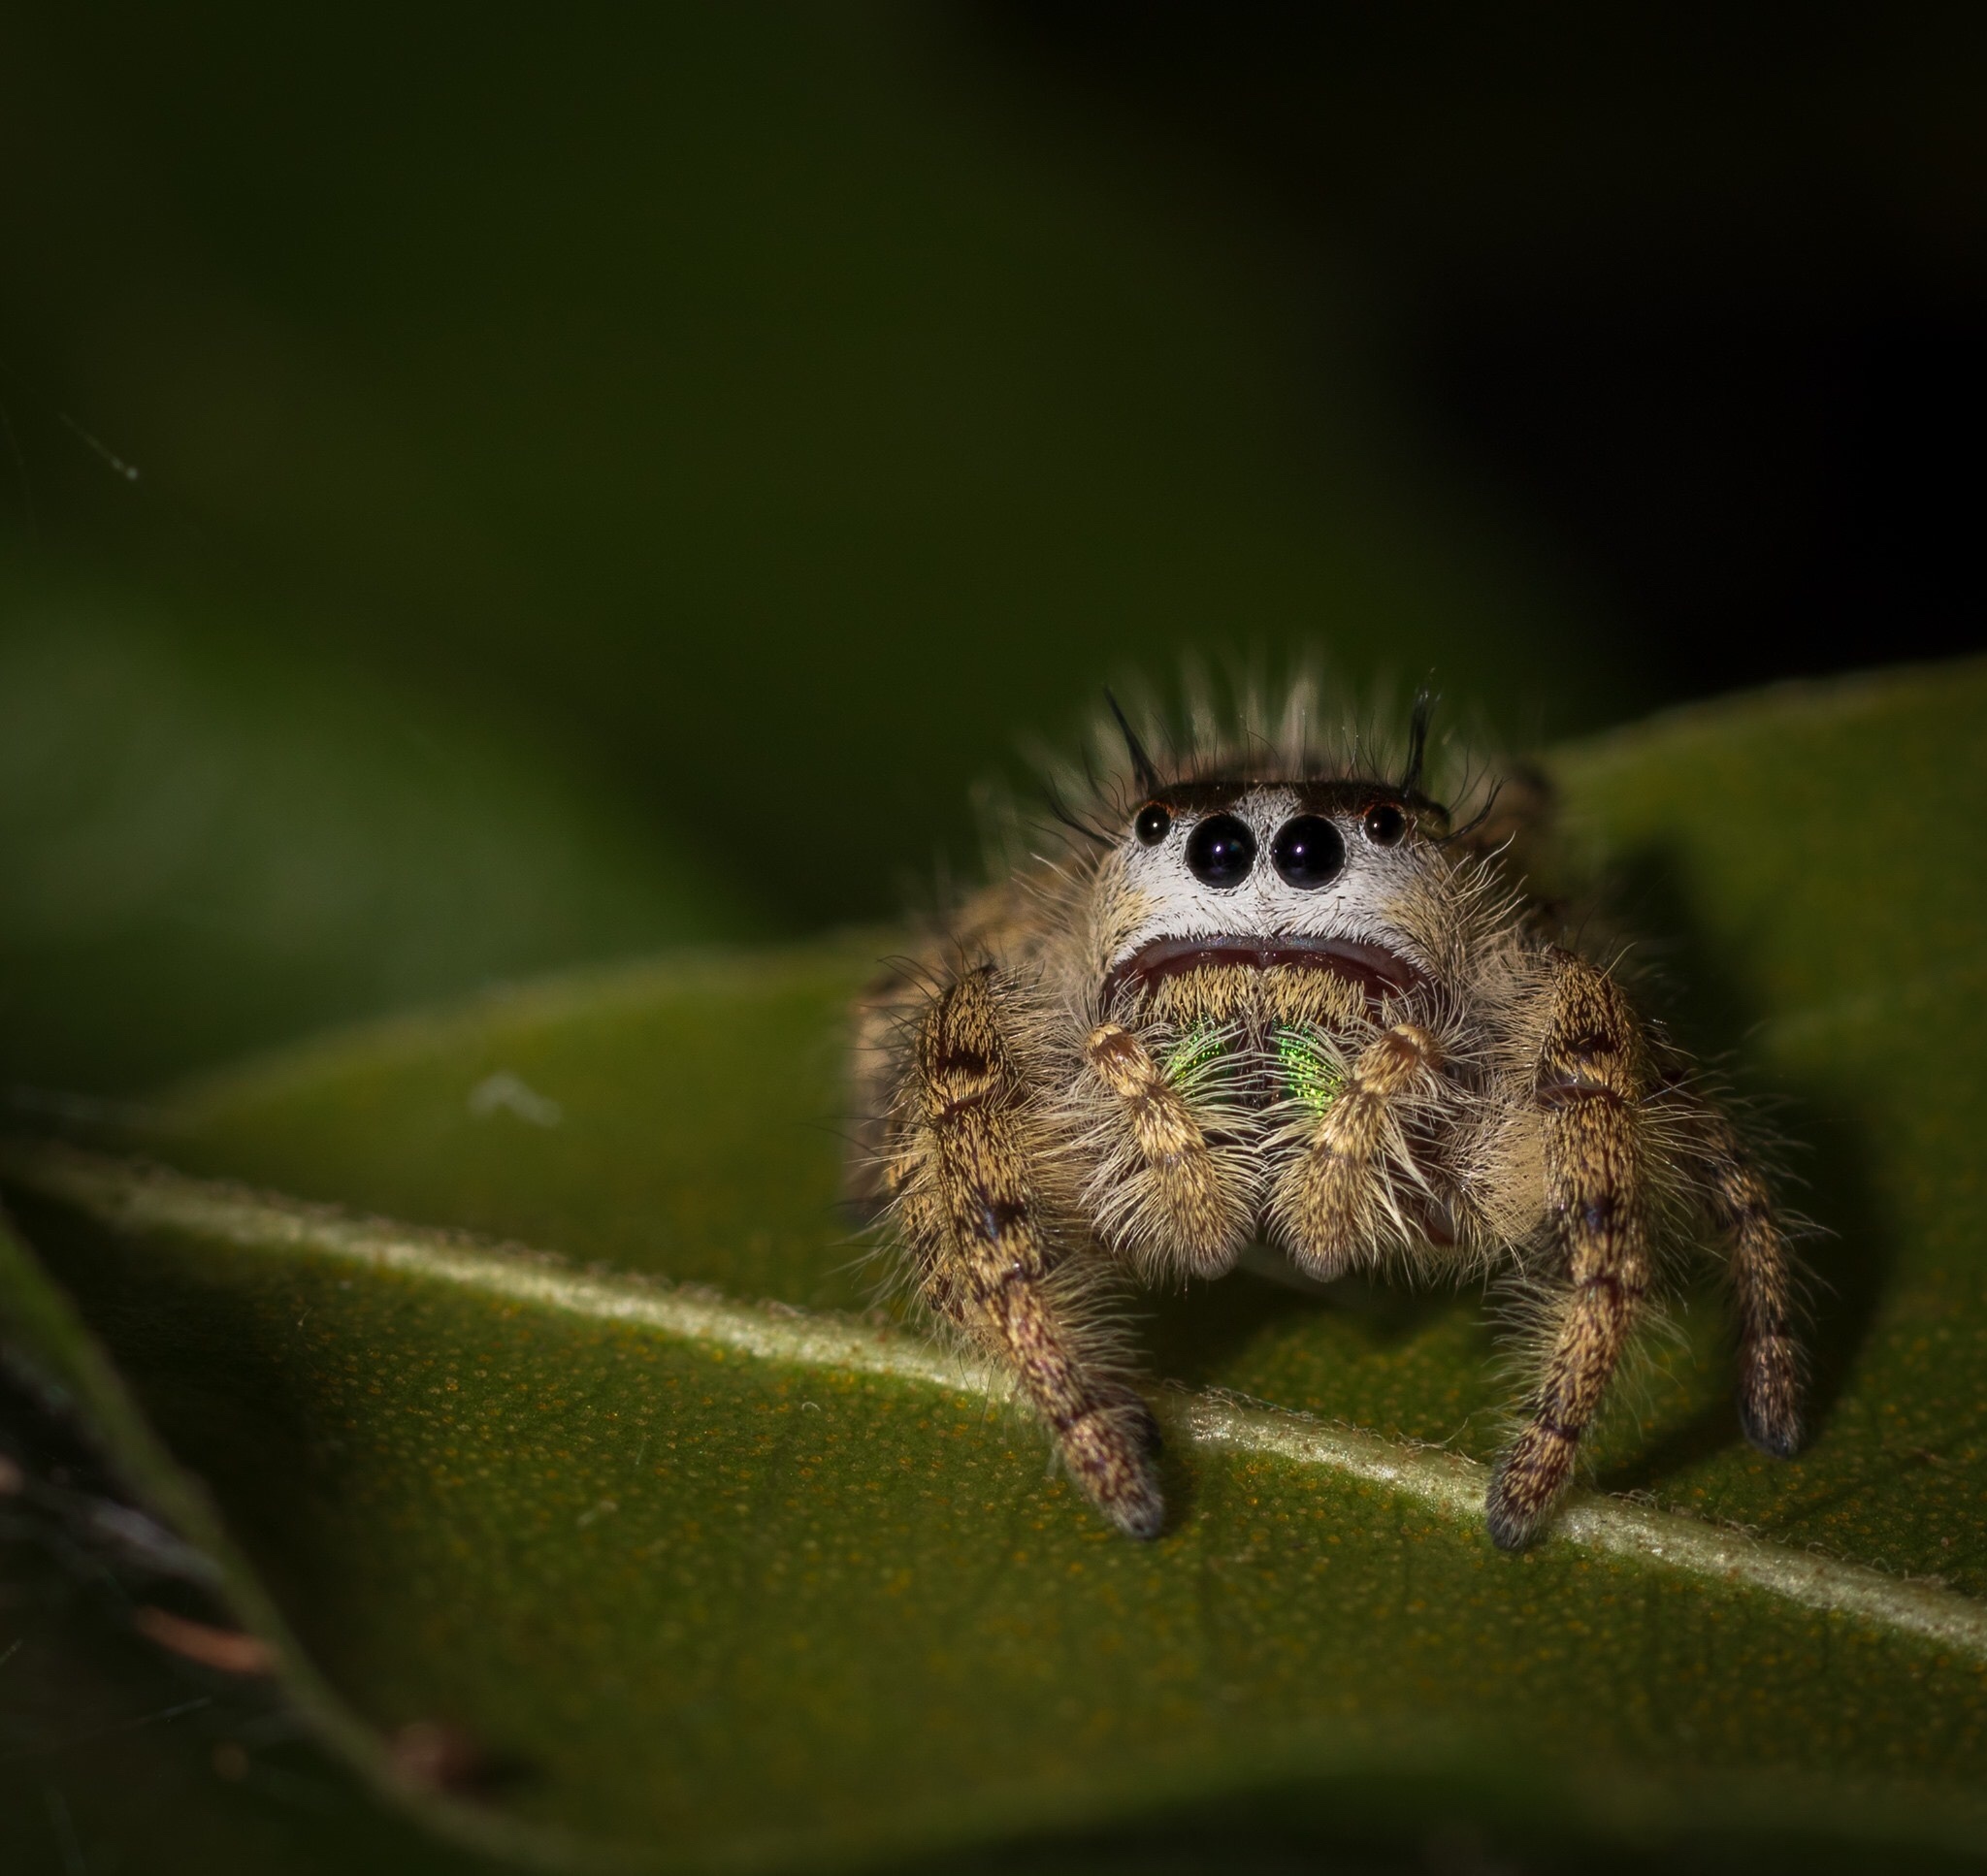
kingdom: Animalia
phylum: Arthropoda
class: Arachnida
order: Araneae
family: Salticidae
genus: Phidippus
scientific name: Phidippus otiosus
